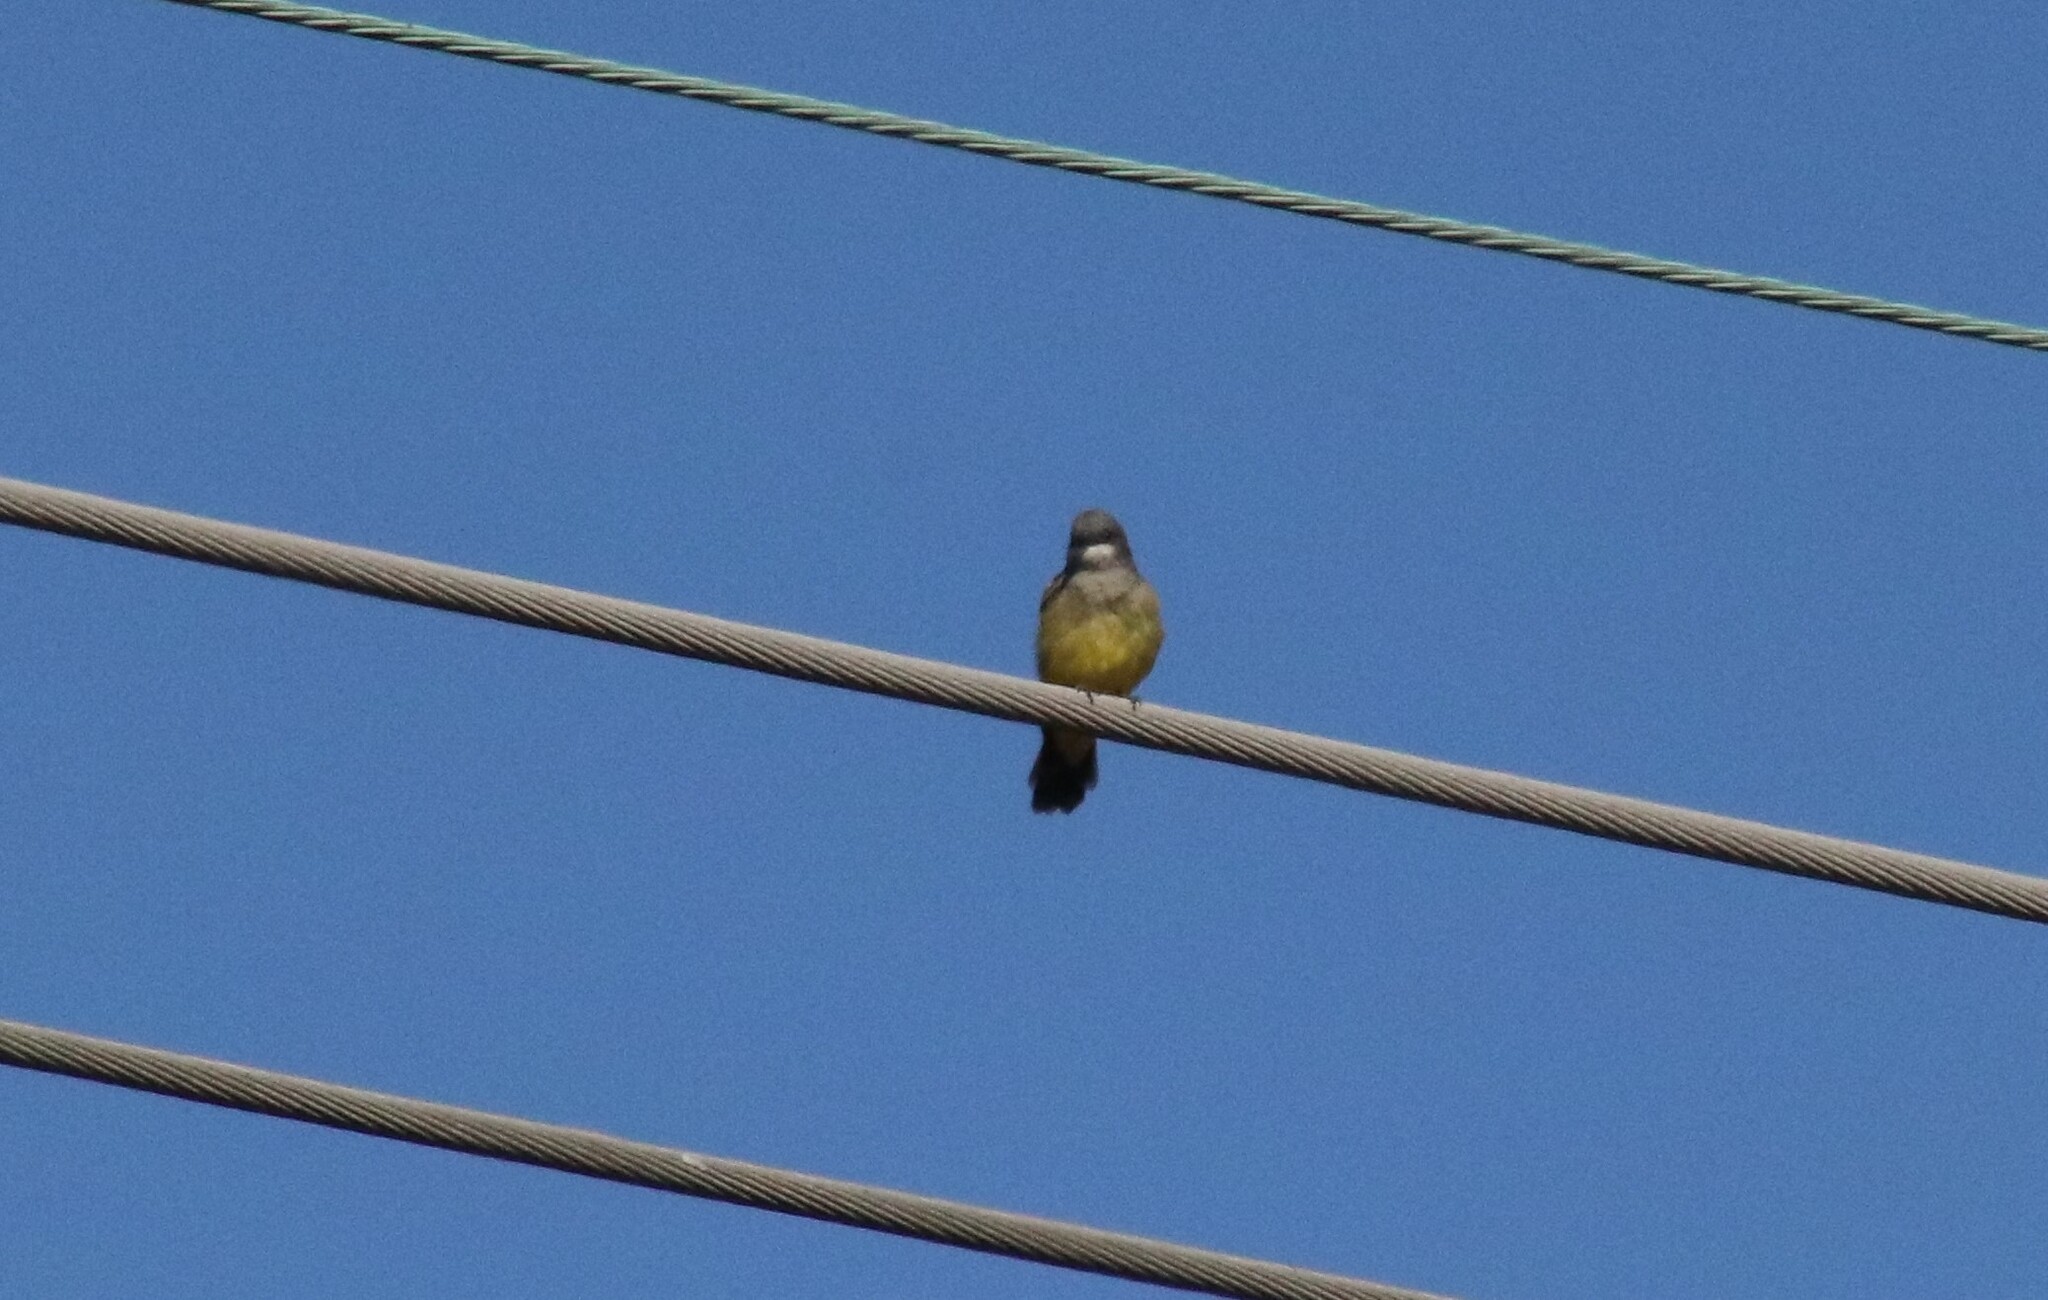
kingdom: Animalia
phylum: Chordata
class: Aves
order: Passeriformes
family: Tyrannidae
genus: Tyrannus
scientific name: Tyrannus vociferans
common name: Cassin's kingbird
